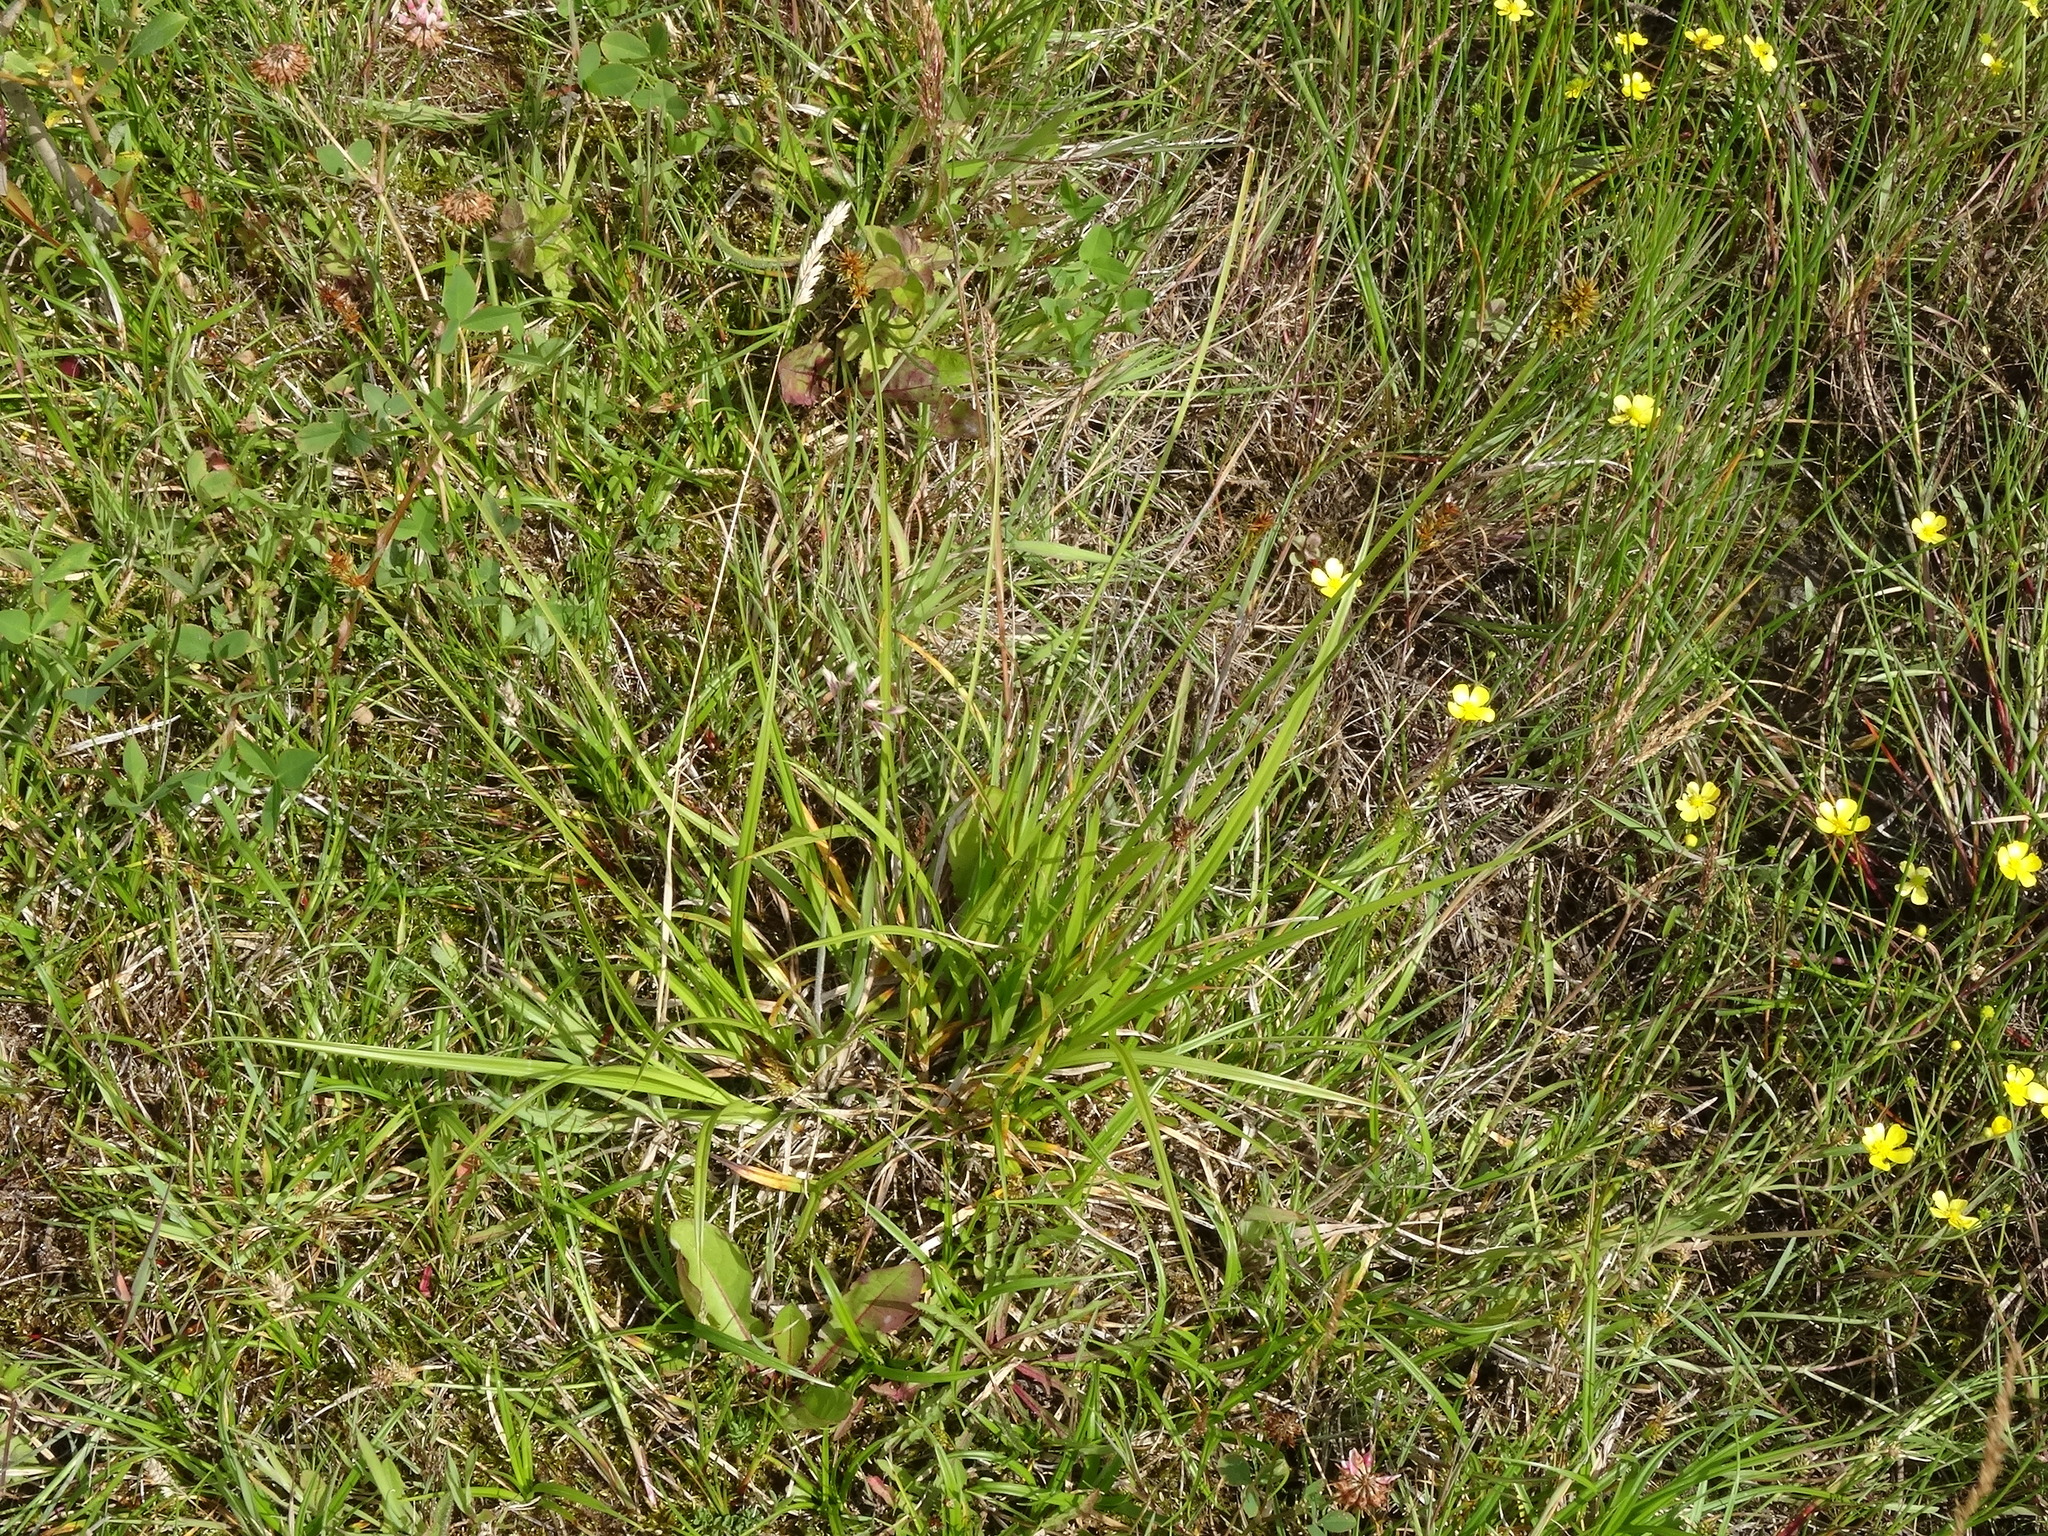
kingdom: Plantae
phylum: Tracheophyta
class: Liliopsida
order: Poales
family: Cyperaceae
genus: Carex
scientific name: Carex otrubae
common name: False fox-sedge
